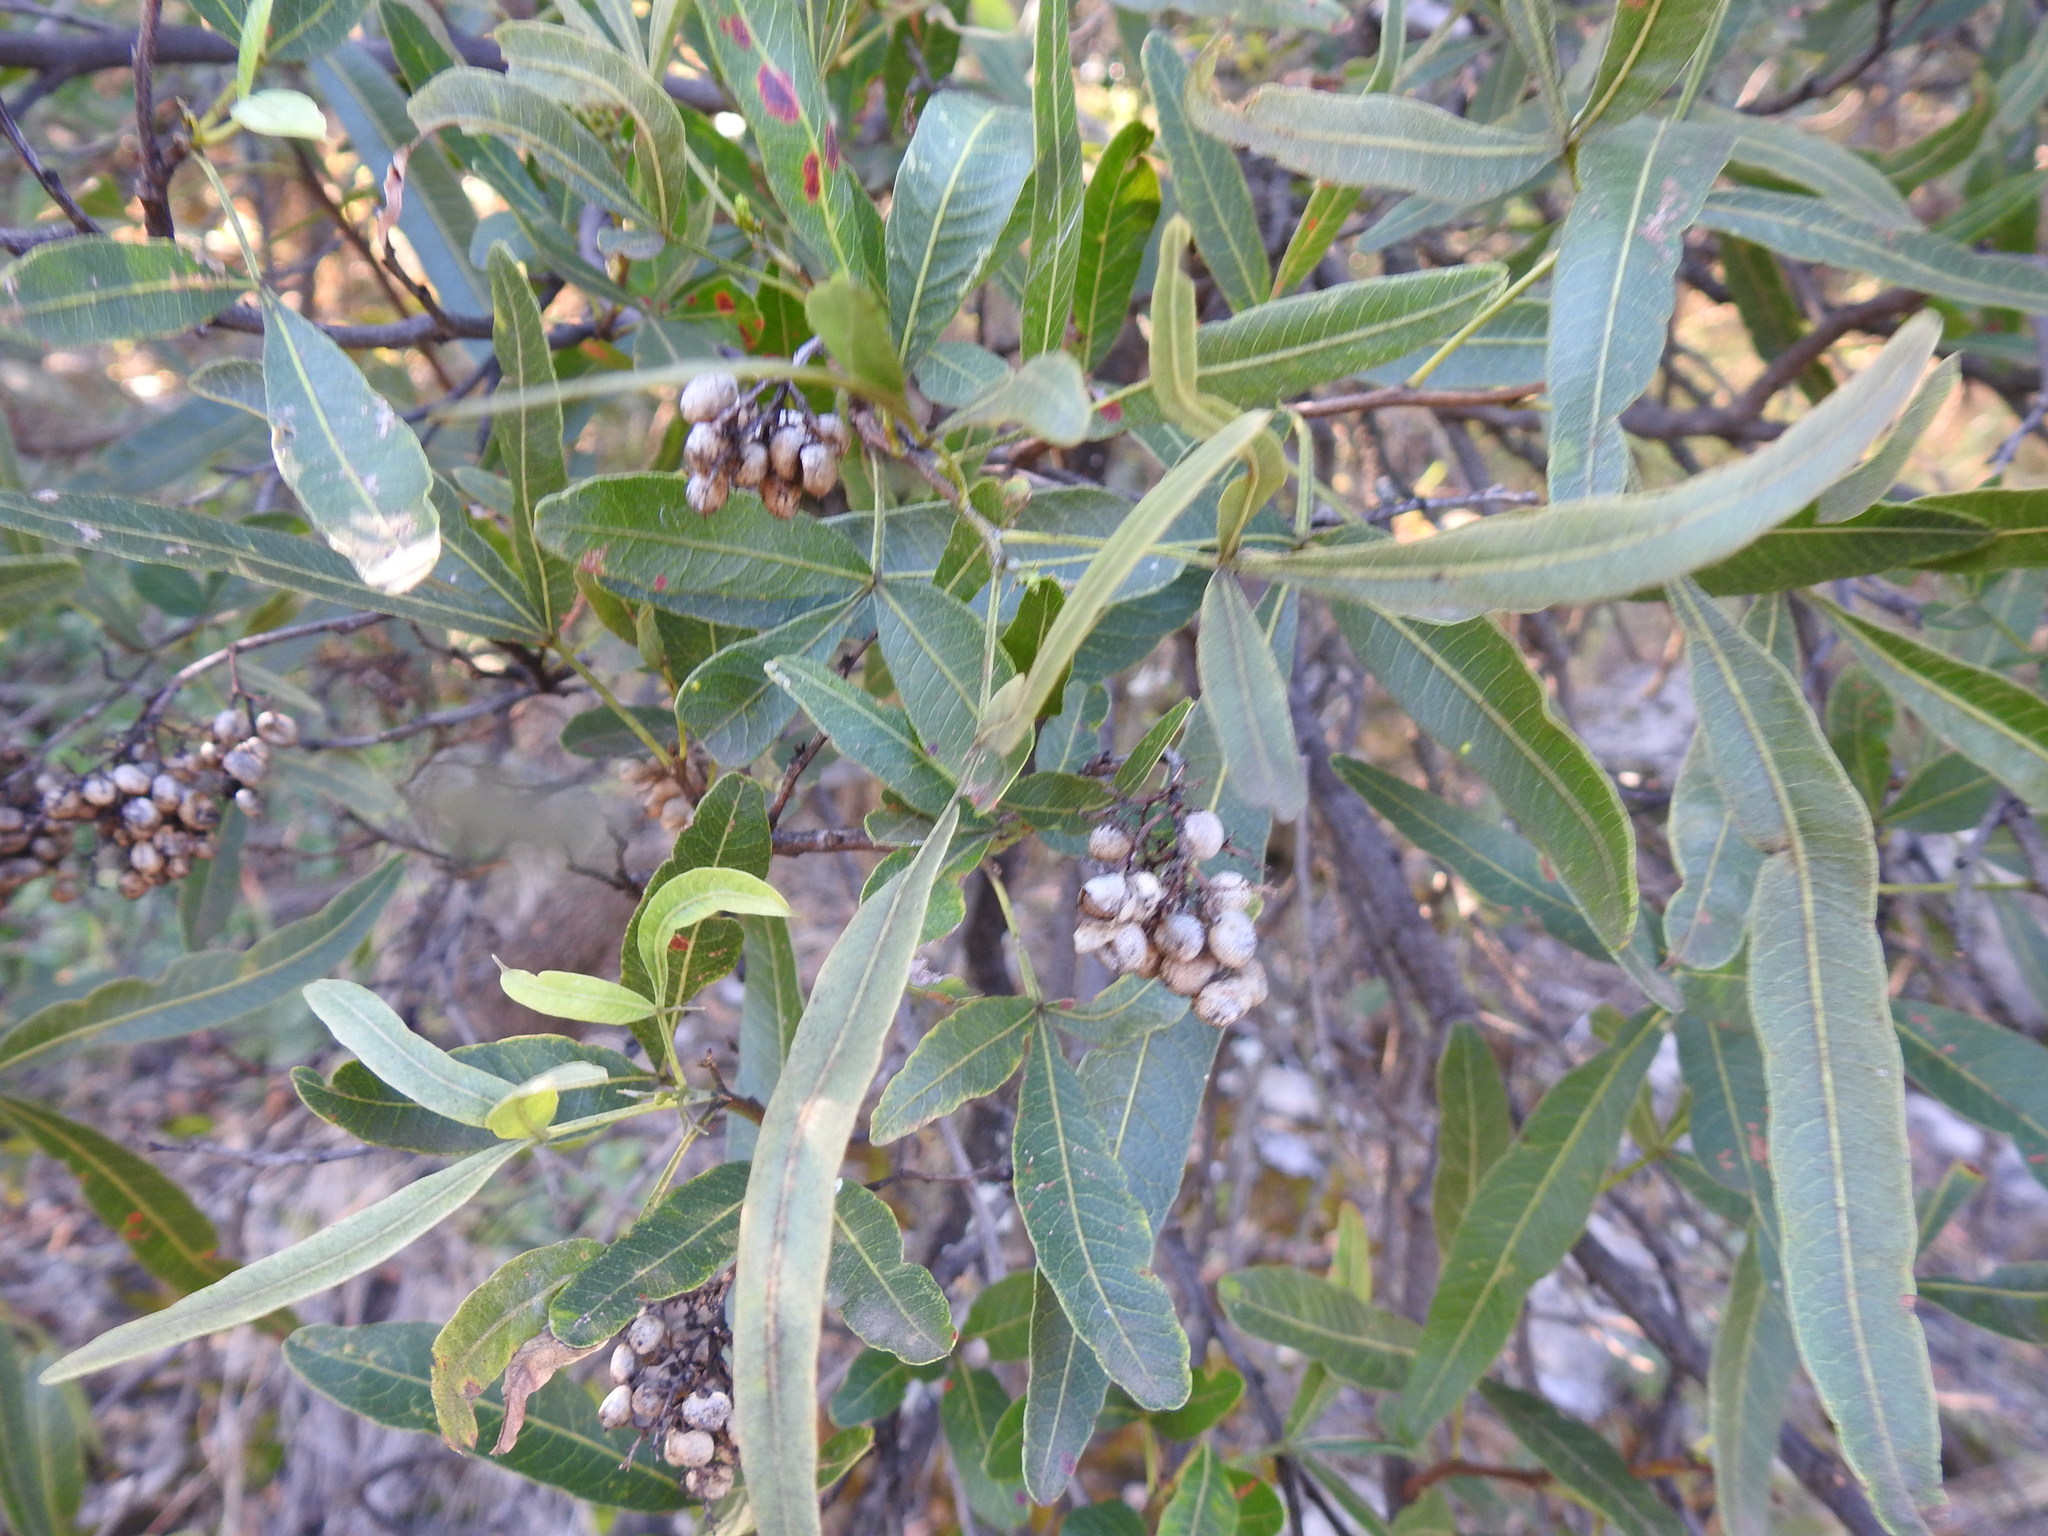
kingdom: Plantae
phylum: Tracheophyta
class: Magnoliopsida
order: Sapindales
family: Anacardiaceae
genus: Searsia
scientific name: Searsia lancea
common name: Cashew
